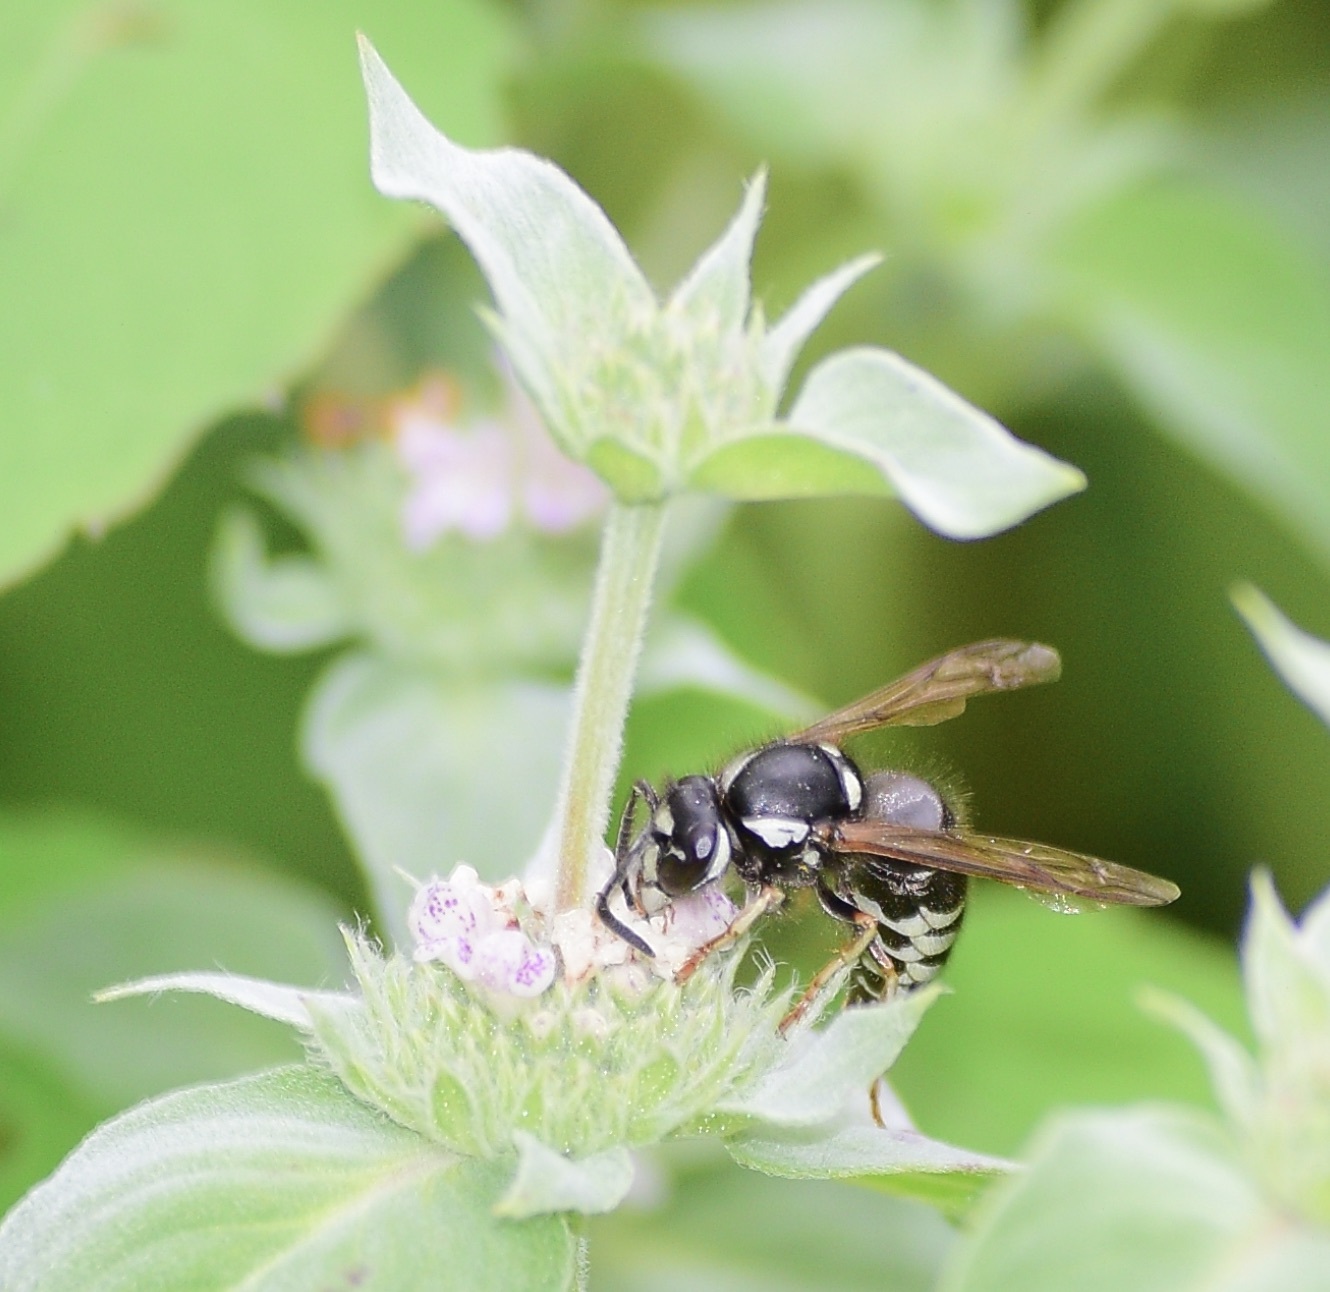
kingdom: Animalia
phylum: Arthropoda
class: Insecta
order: Hymenoptera
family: Vespidae
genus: Vespula
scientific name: Vespula consobrina
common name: Blackjacket
